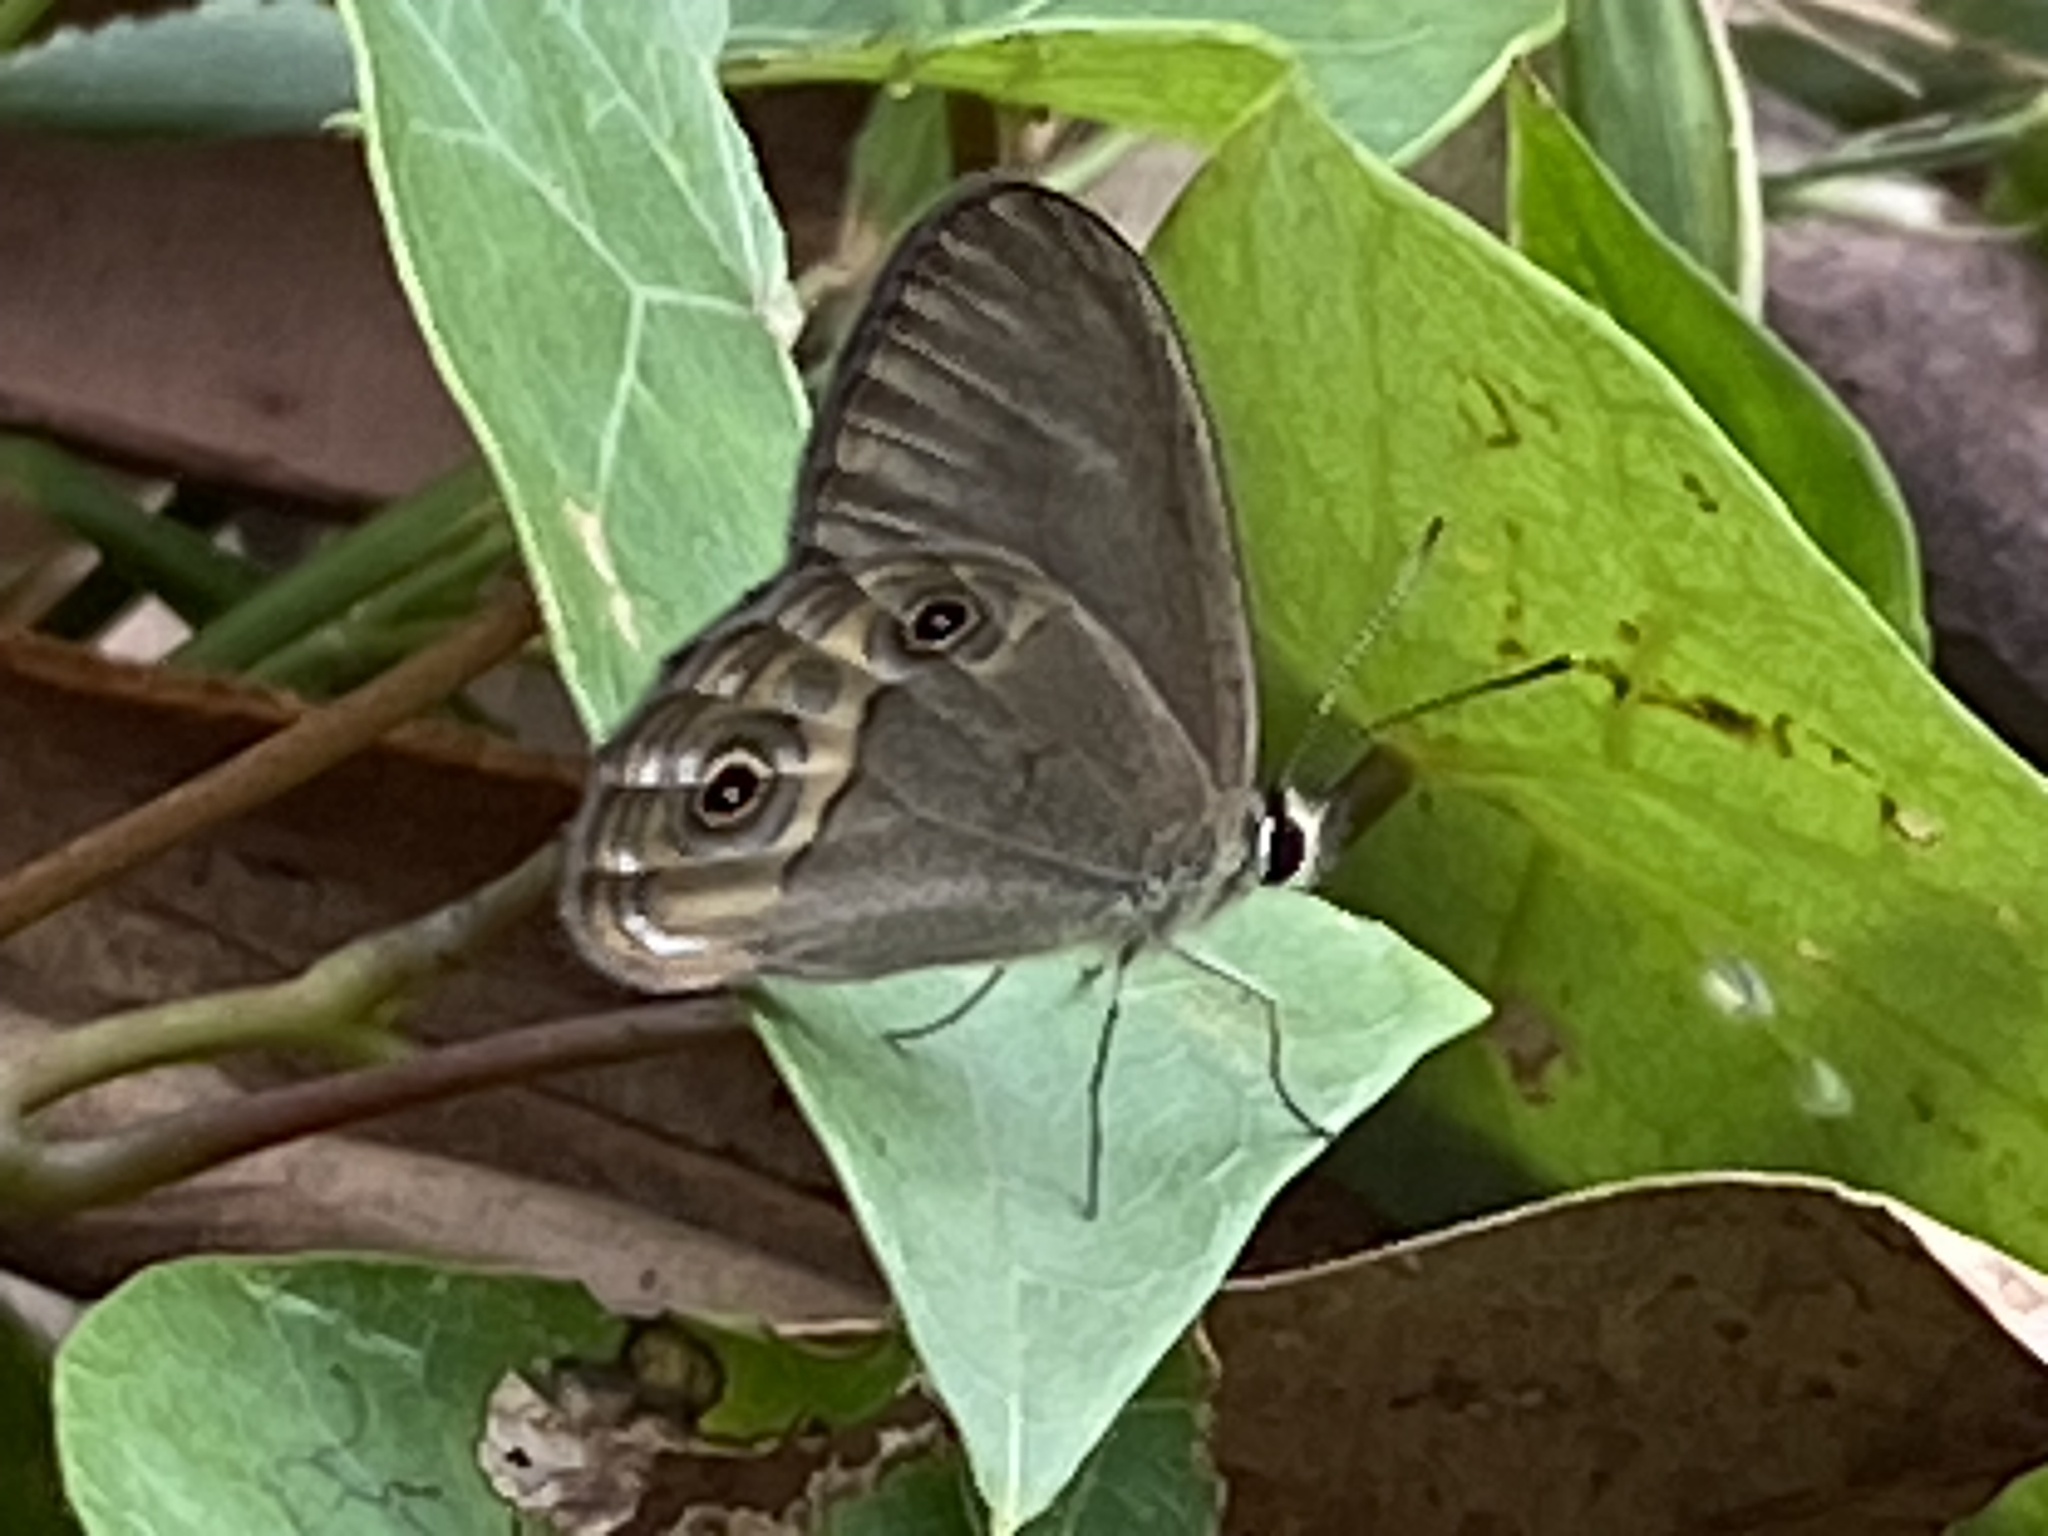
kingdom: Animalia
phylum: Arthropoda
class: Insecta
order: Lepidoptera
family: Nymphalidae
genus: Hypocysta
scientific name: Hypocysta pseudirius
